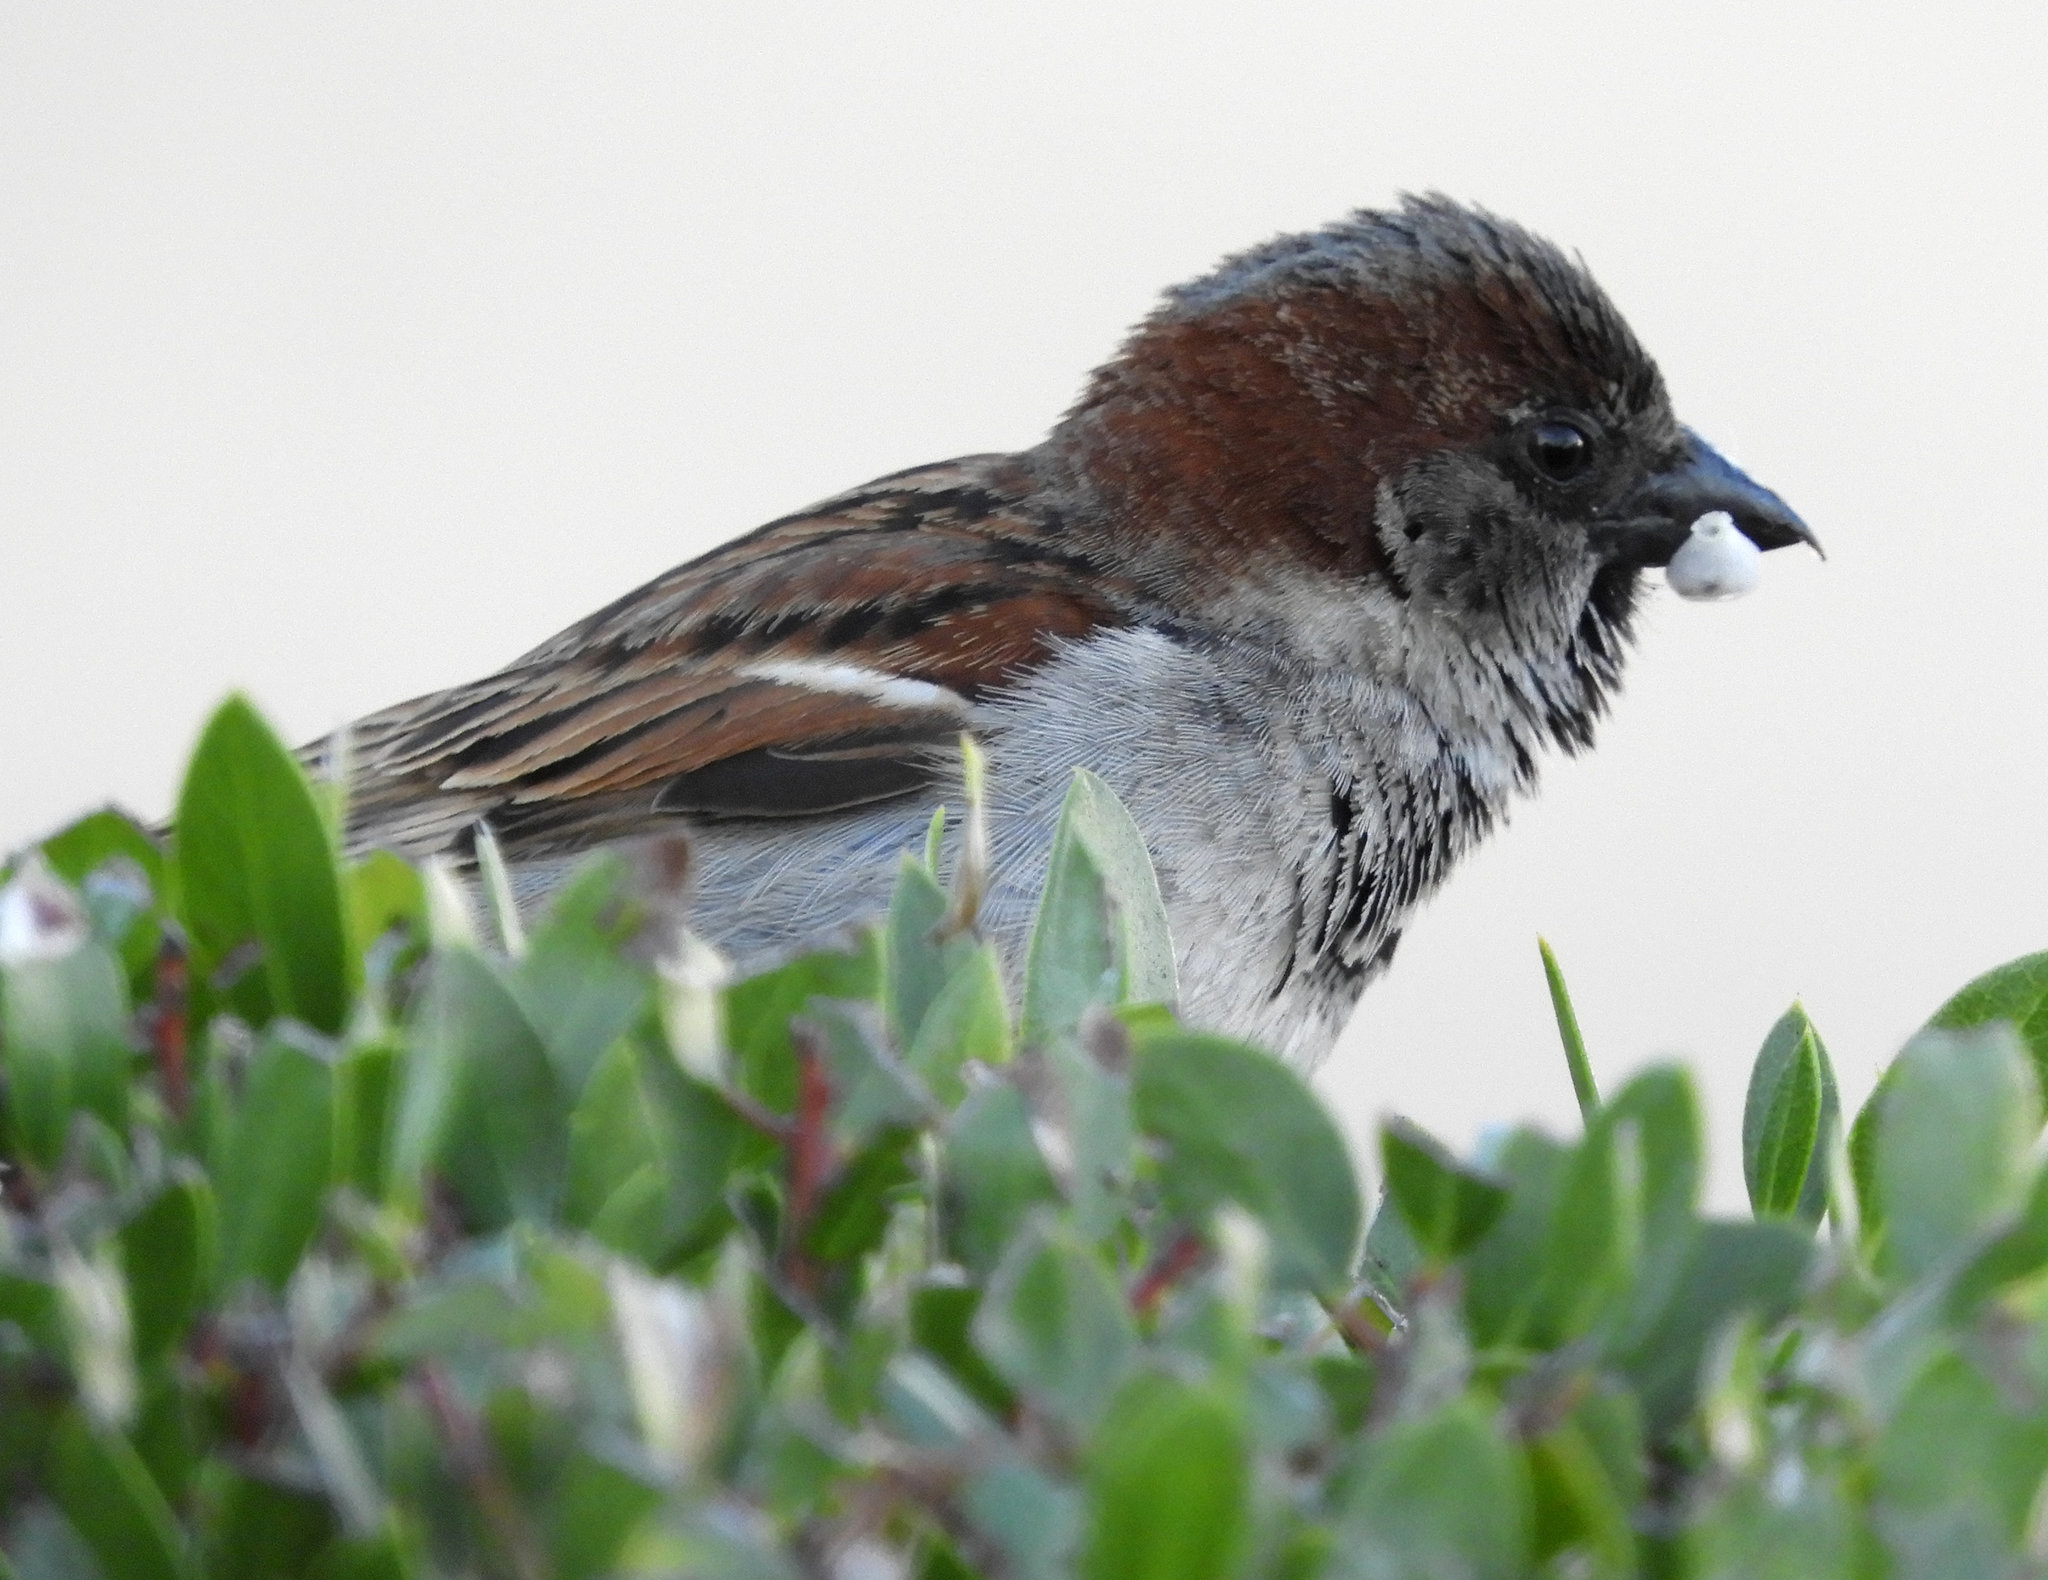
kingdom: Animalia
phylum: Chordata
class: Aves
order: Passeriformes
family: Passeridae
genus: Passer
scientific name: Passer domesticus
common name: House sparrow
